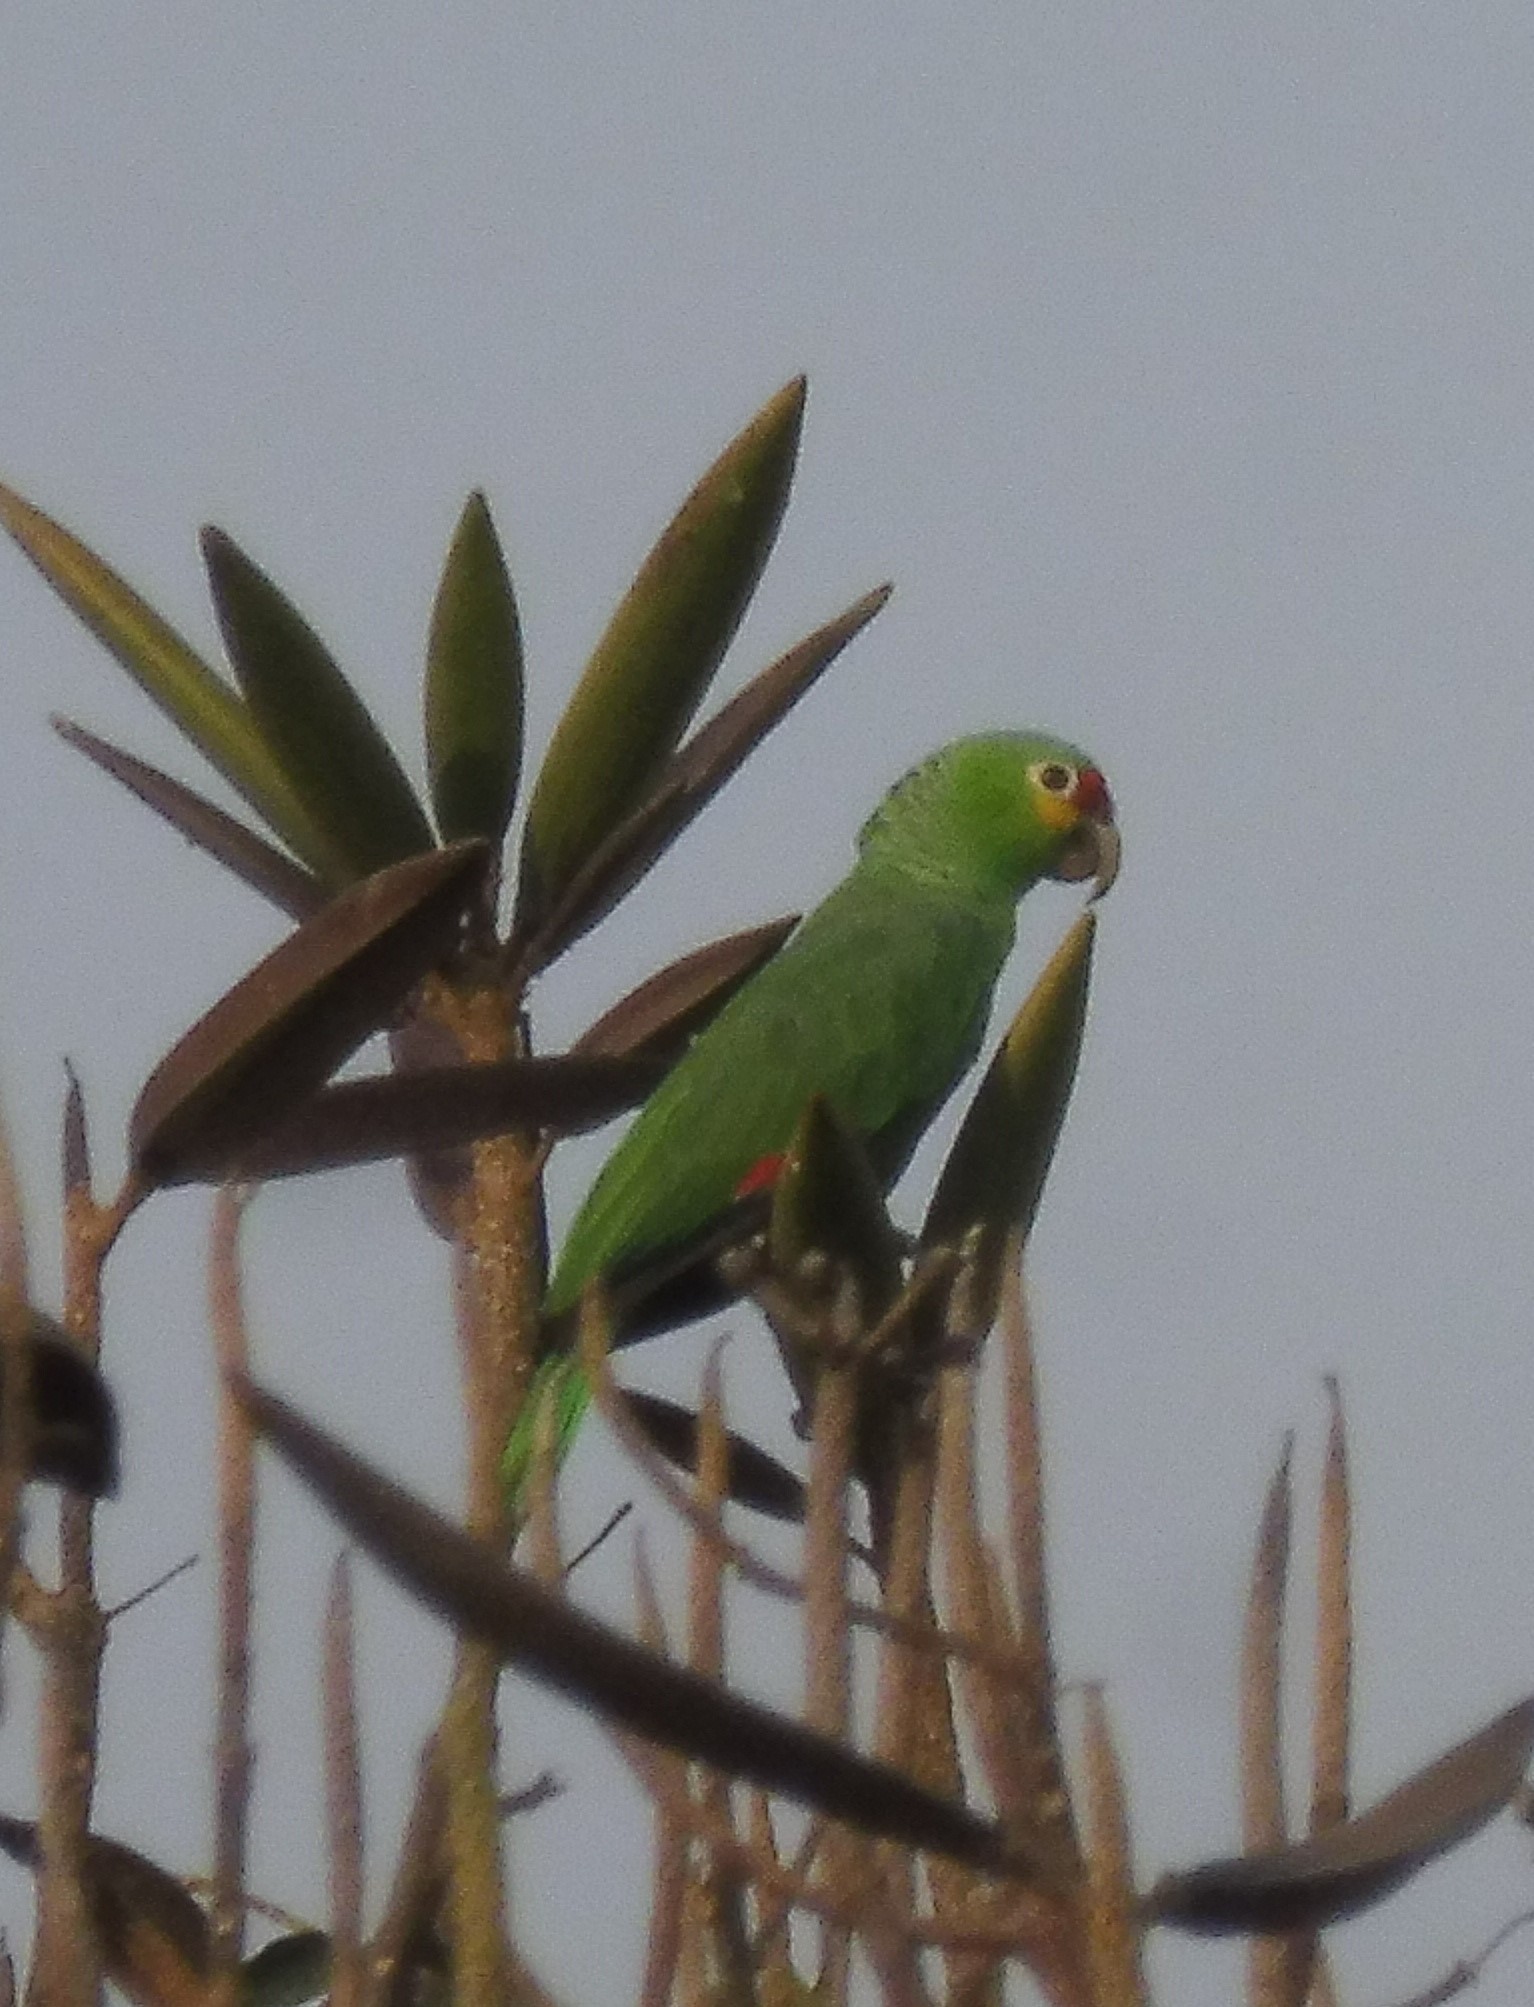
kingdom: Animalia
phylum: Chordata
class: Aves
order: Psittaciformes
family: Psittacidae
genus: Amazona
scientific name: Amazona autumnalis
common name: Red-lored amazon
